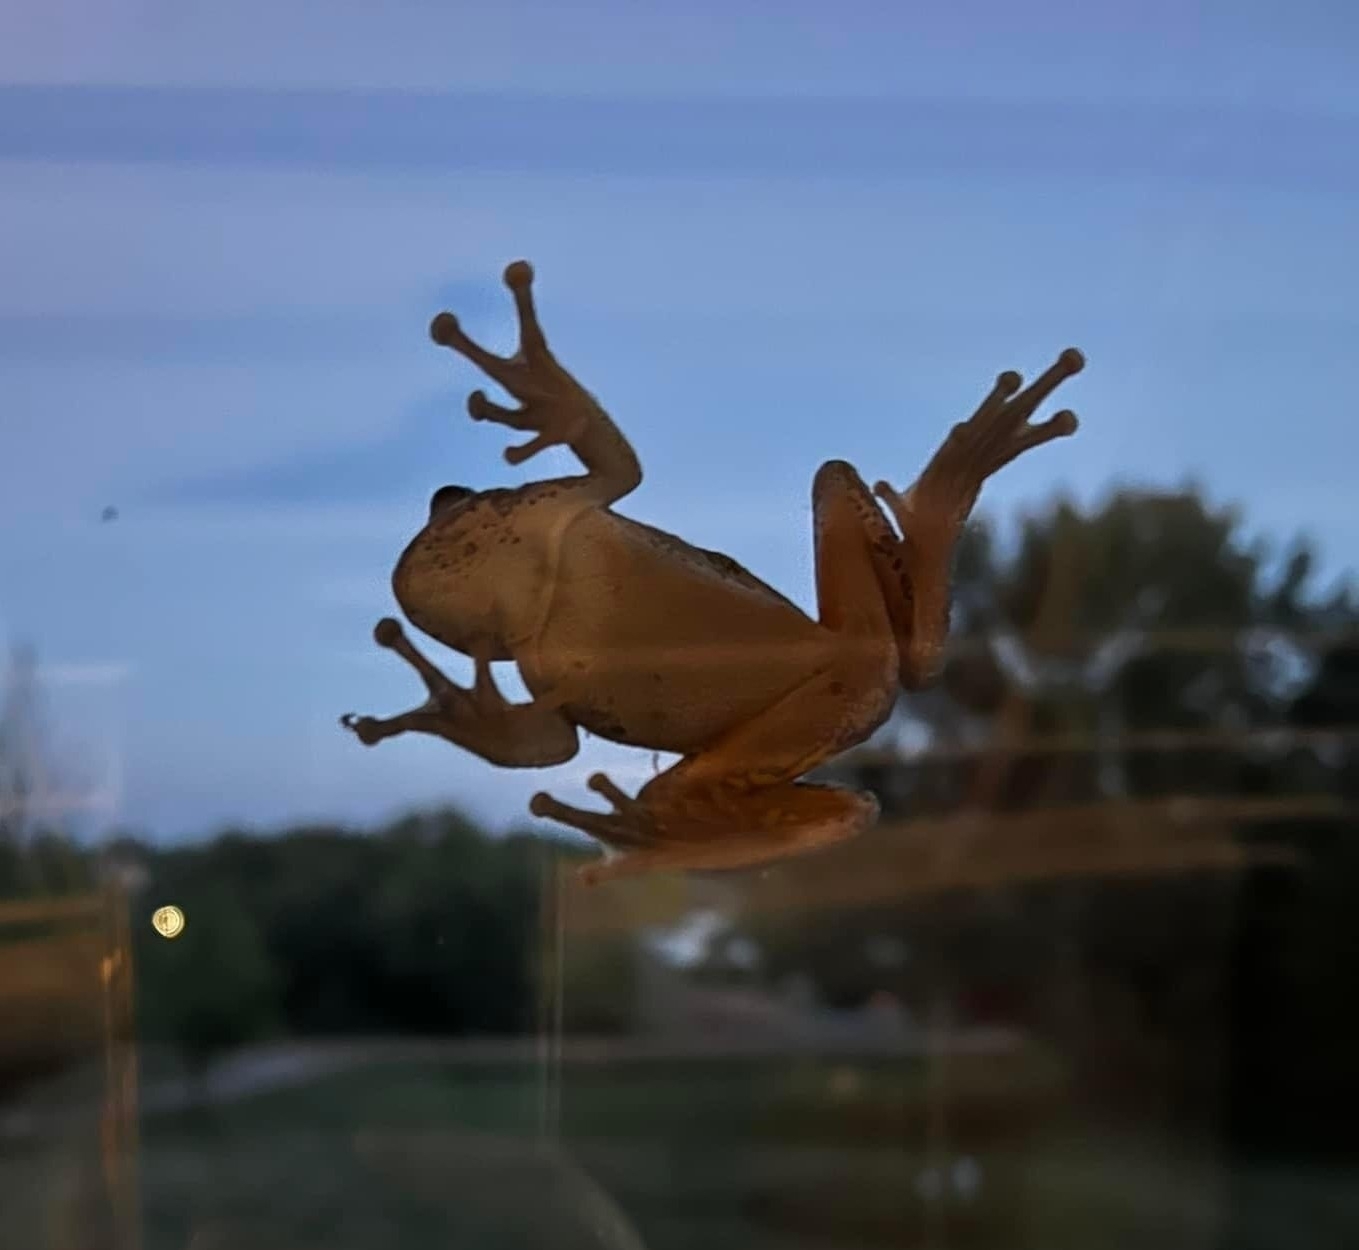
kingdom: Animalia
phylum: Chordata
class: Amphibia
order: Anura
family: Hylidae
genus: Hyla
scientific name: Hyla
